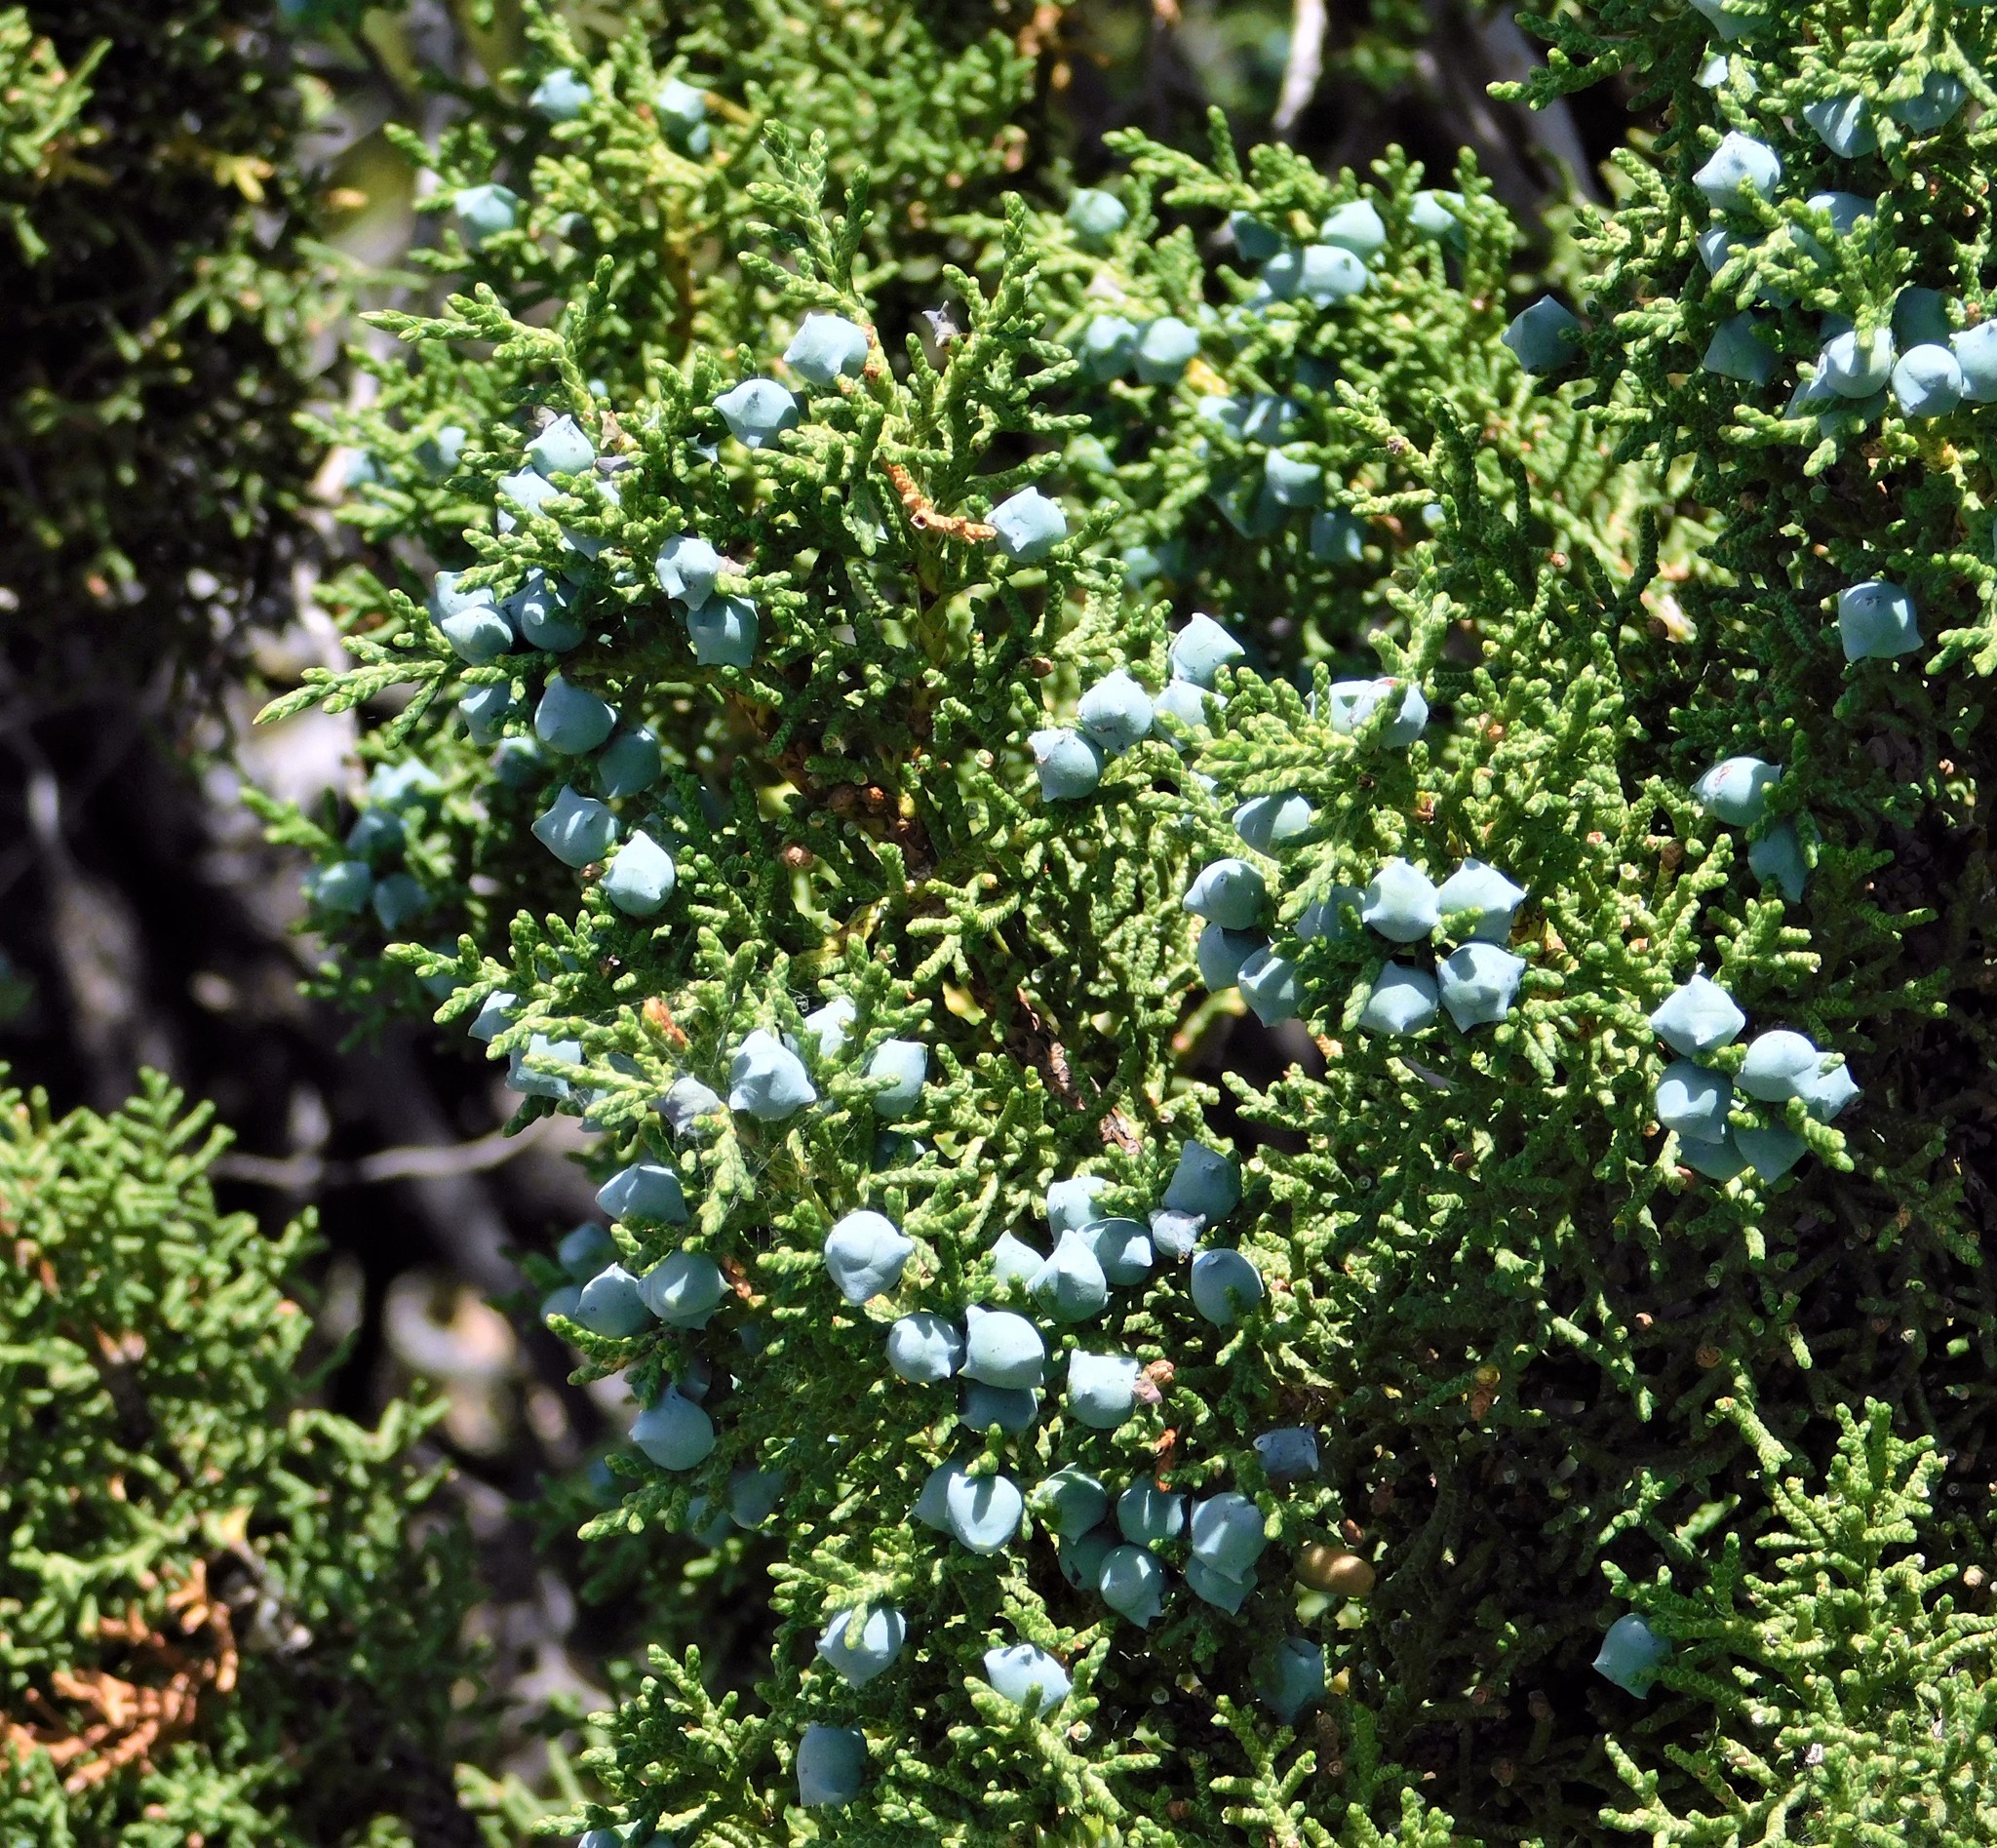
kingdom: Plantae
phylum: Tracheophyta
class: Pinopsida
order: Pinales
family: Cupressaceae
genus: Juniperus
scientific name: Juniperus osteosperma
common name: Utah juniper
